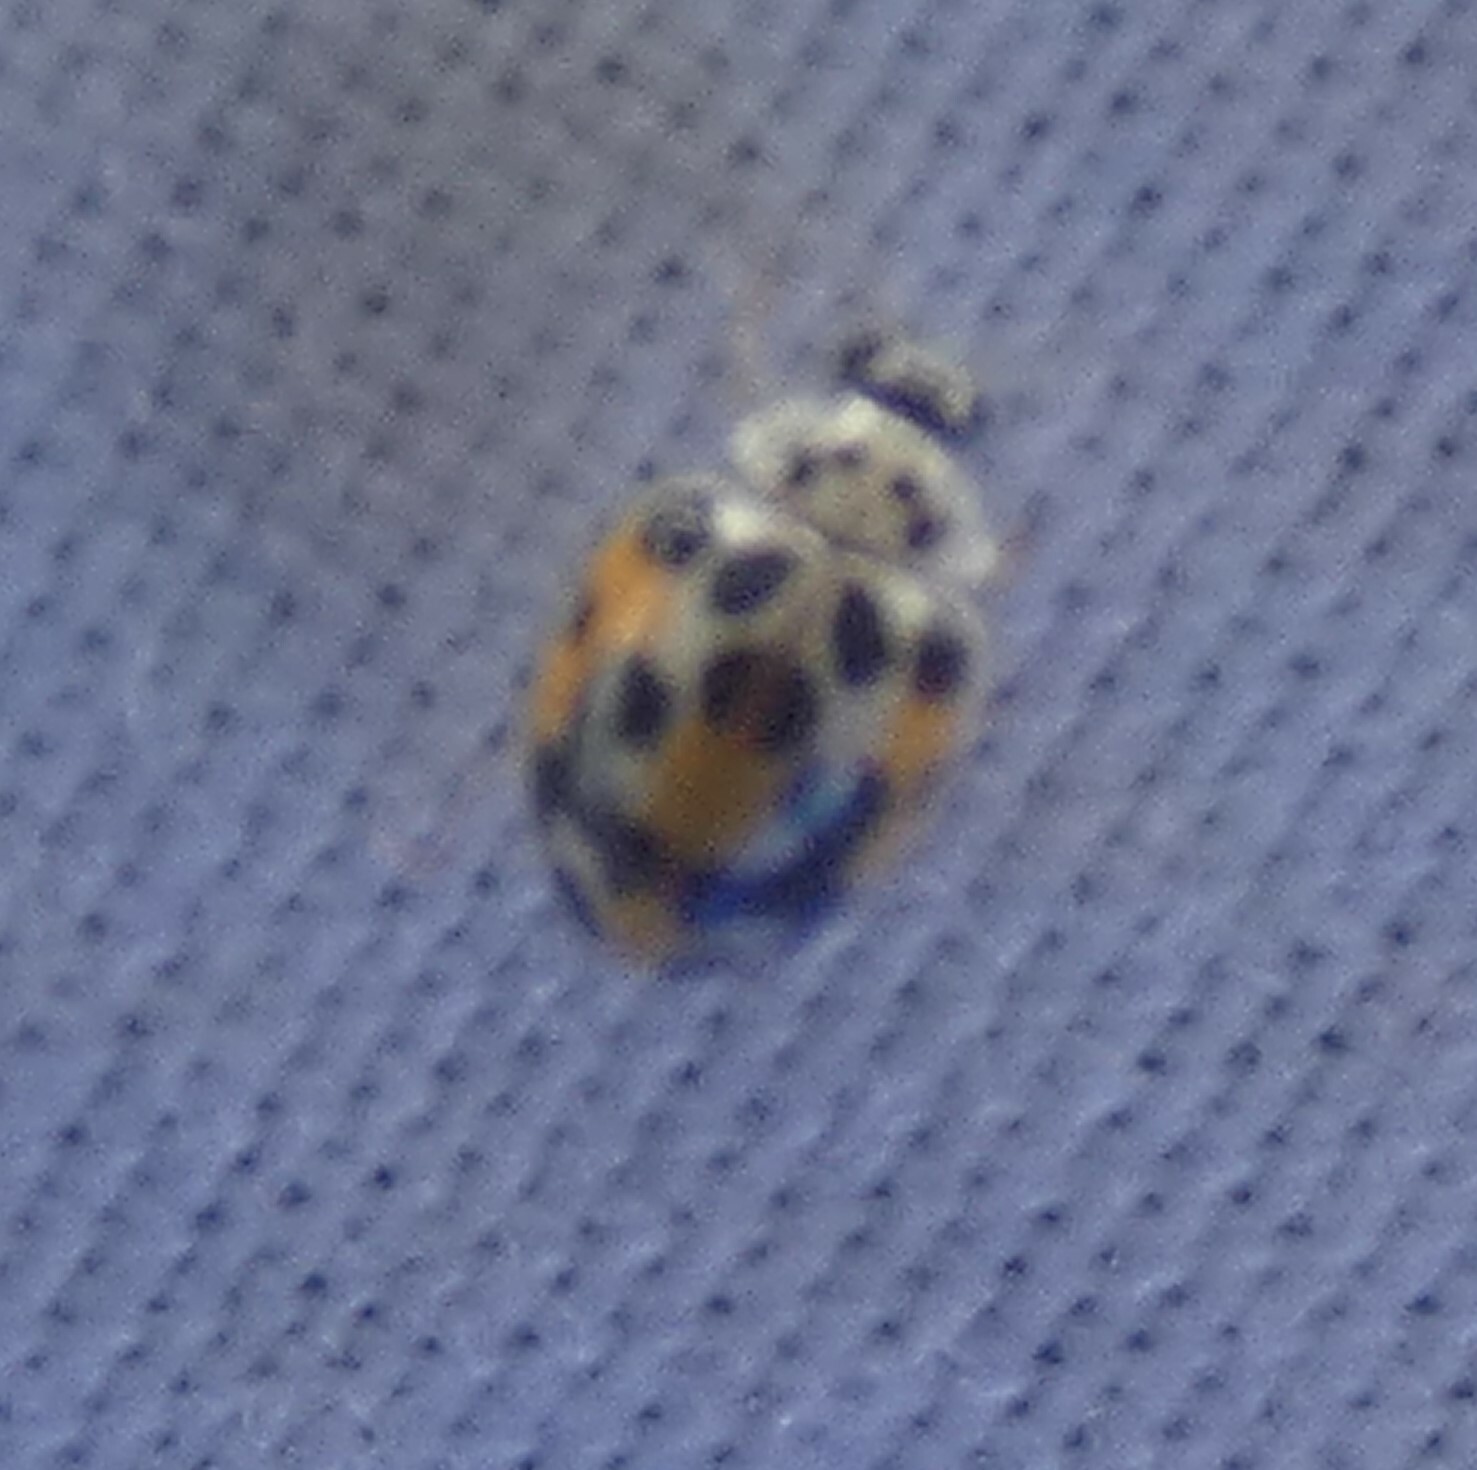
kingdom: Animalia
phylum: Arthropoda
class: Insecta
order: Coleoptera
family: Coccinellidae
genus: Psyllobora
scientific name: Psyllobora vigintimaculata
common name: Ladybird beetle
